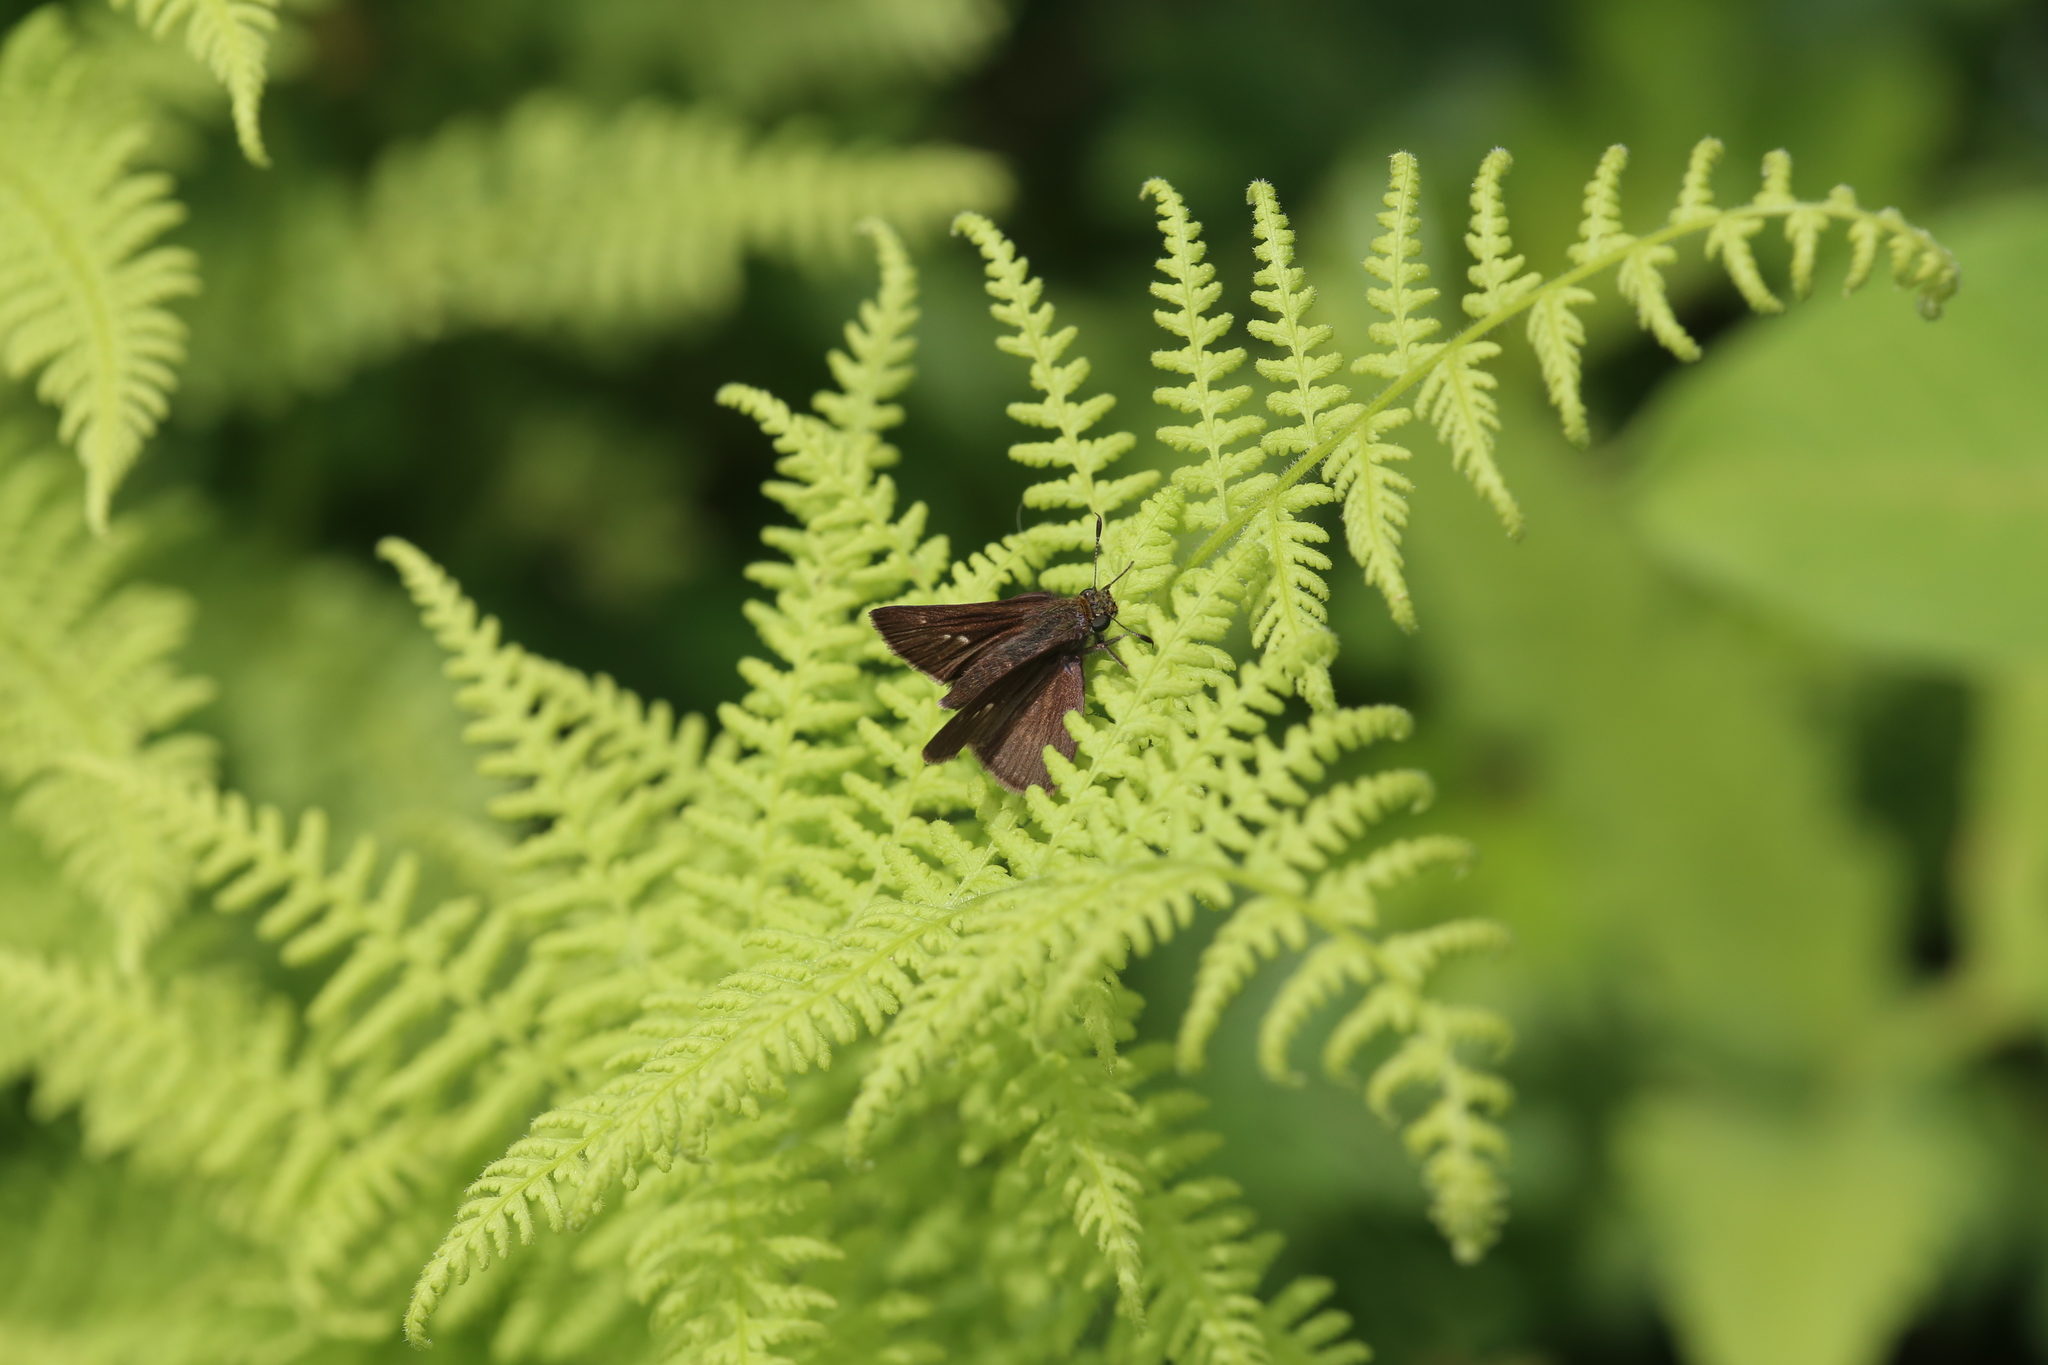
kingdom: Animalia
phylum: Arthropoda
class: Insecta
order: Lepidoptera
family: Hesperiidae
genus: Euphyes
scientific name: Euphyes vestris
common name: Dun skipper
